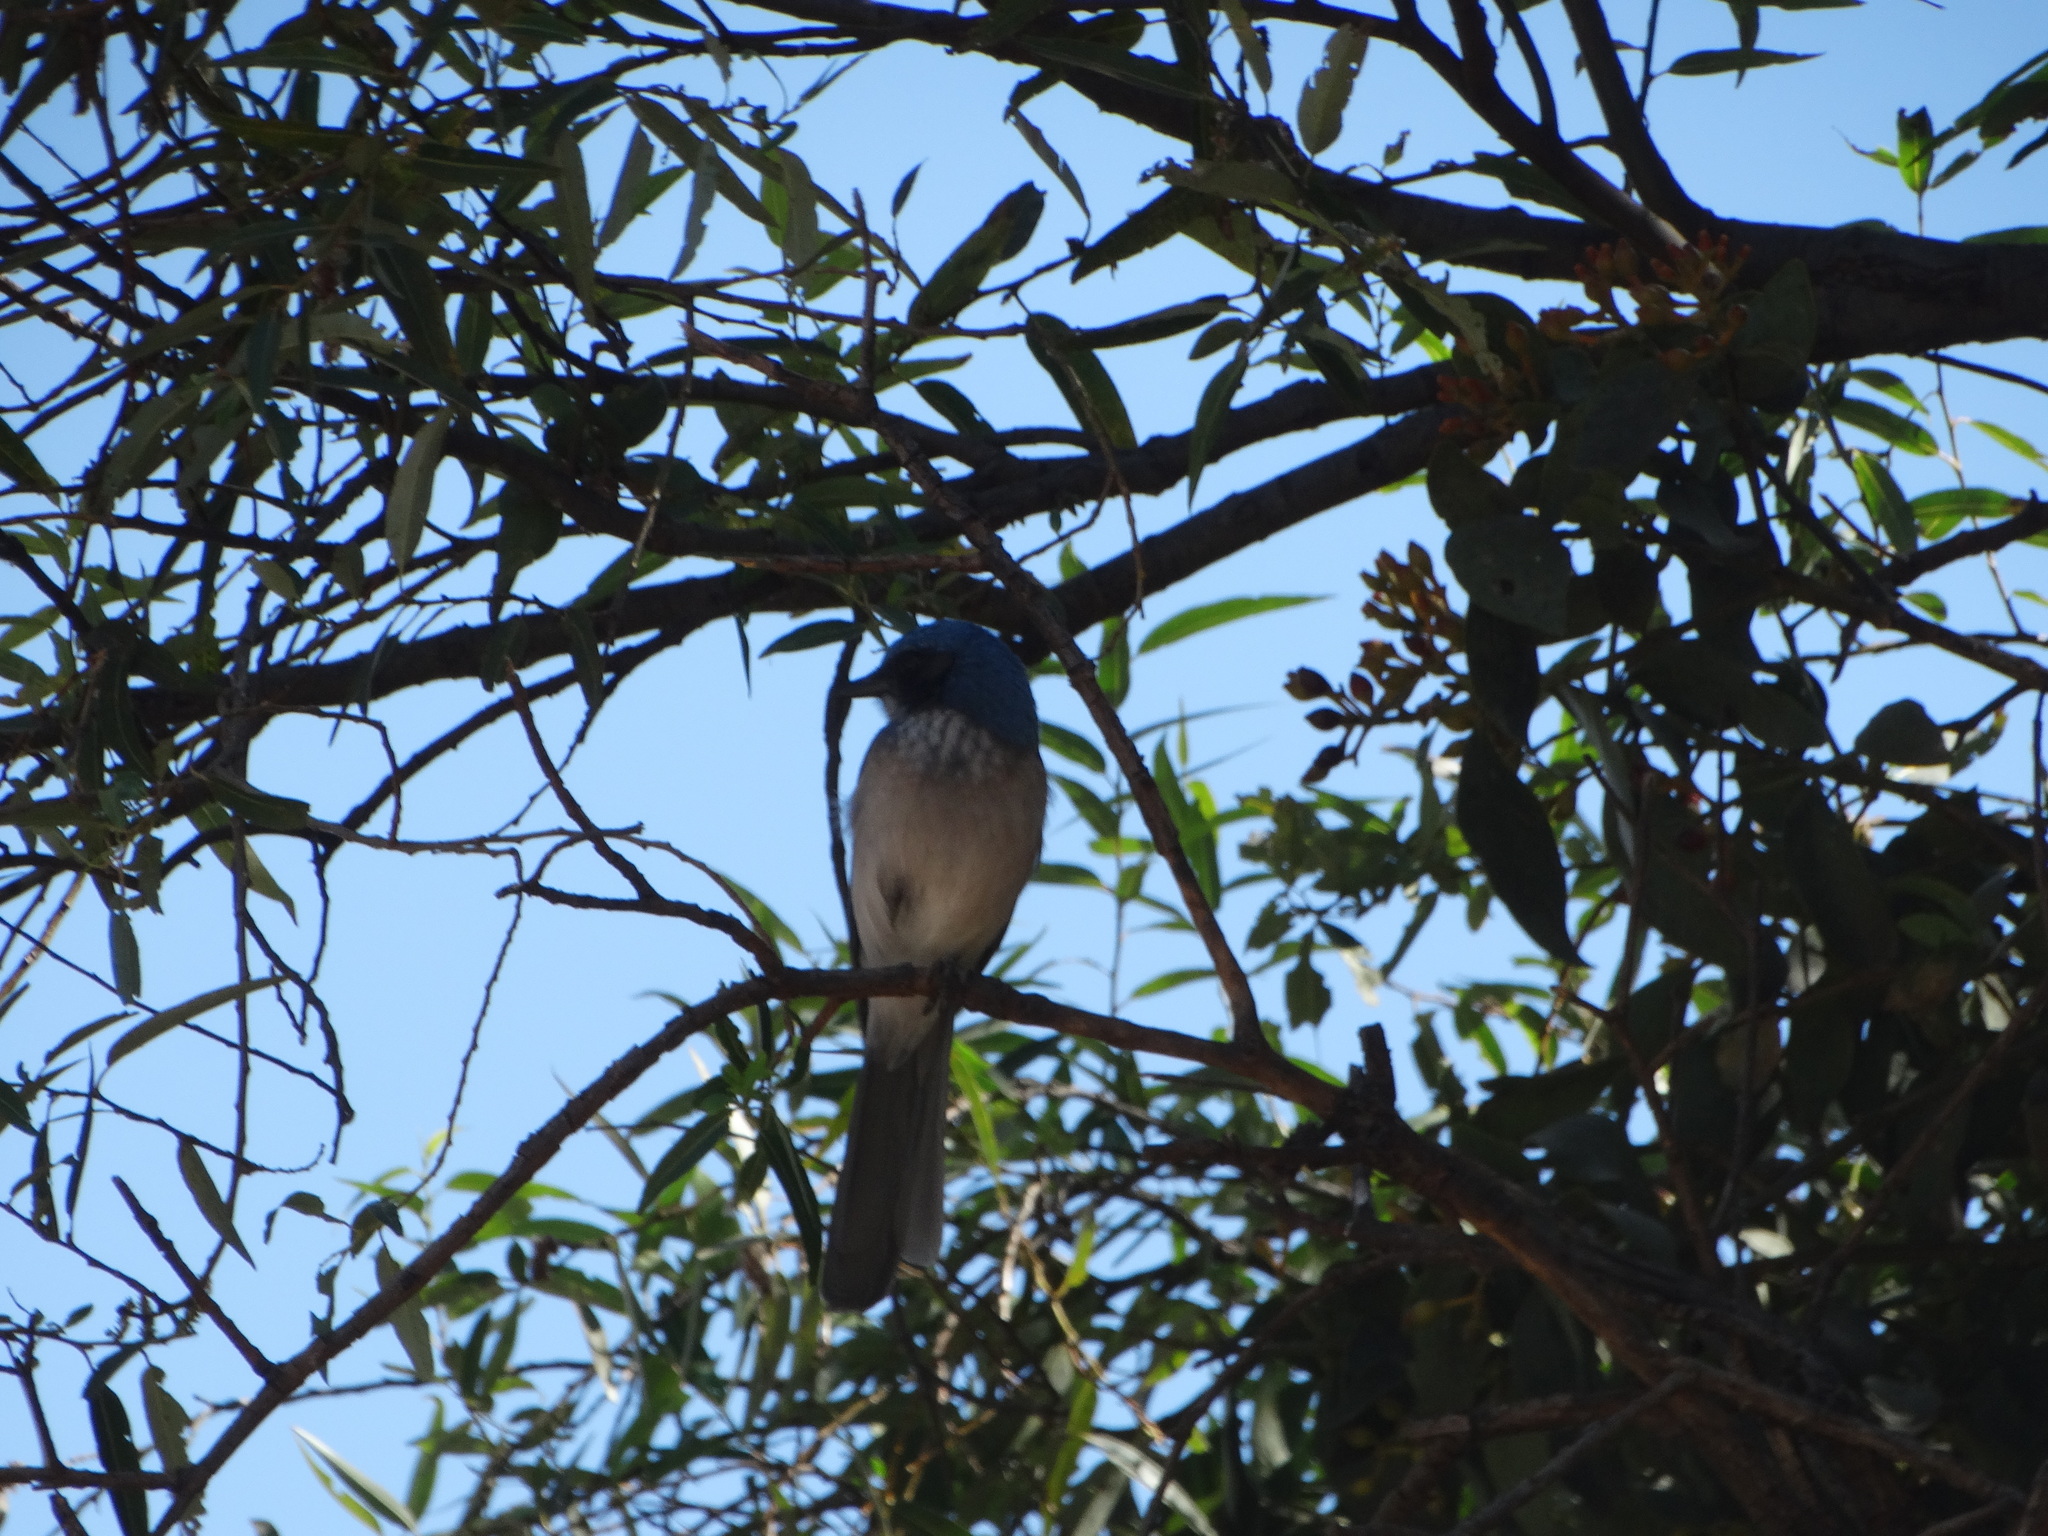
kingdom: Animalia
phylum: Chordata
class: Aves
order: Passeriformes
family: Corvidae
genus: Aphelocoma
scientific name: Aphelocoma woodhouseii
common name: Woodhouse's scrub-jay
